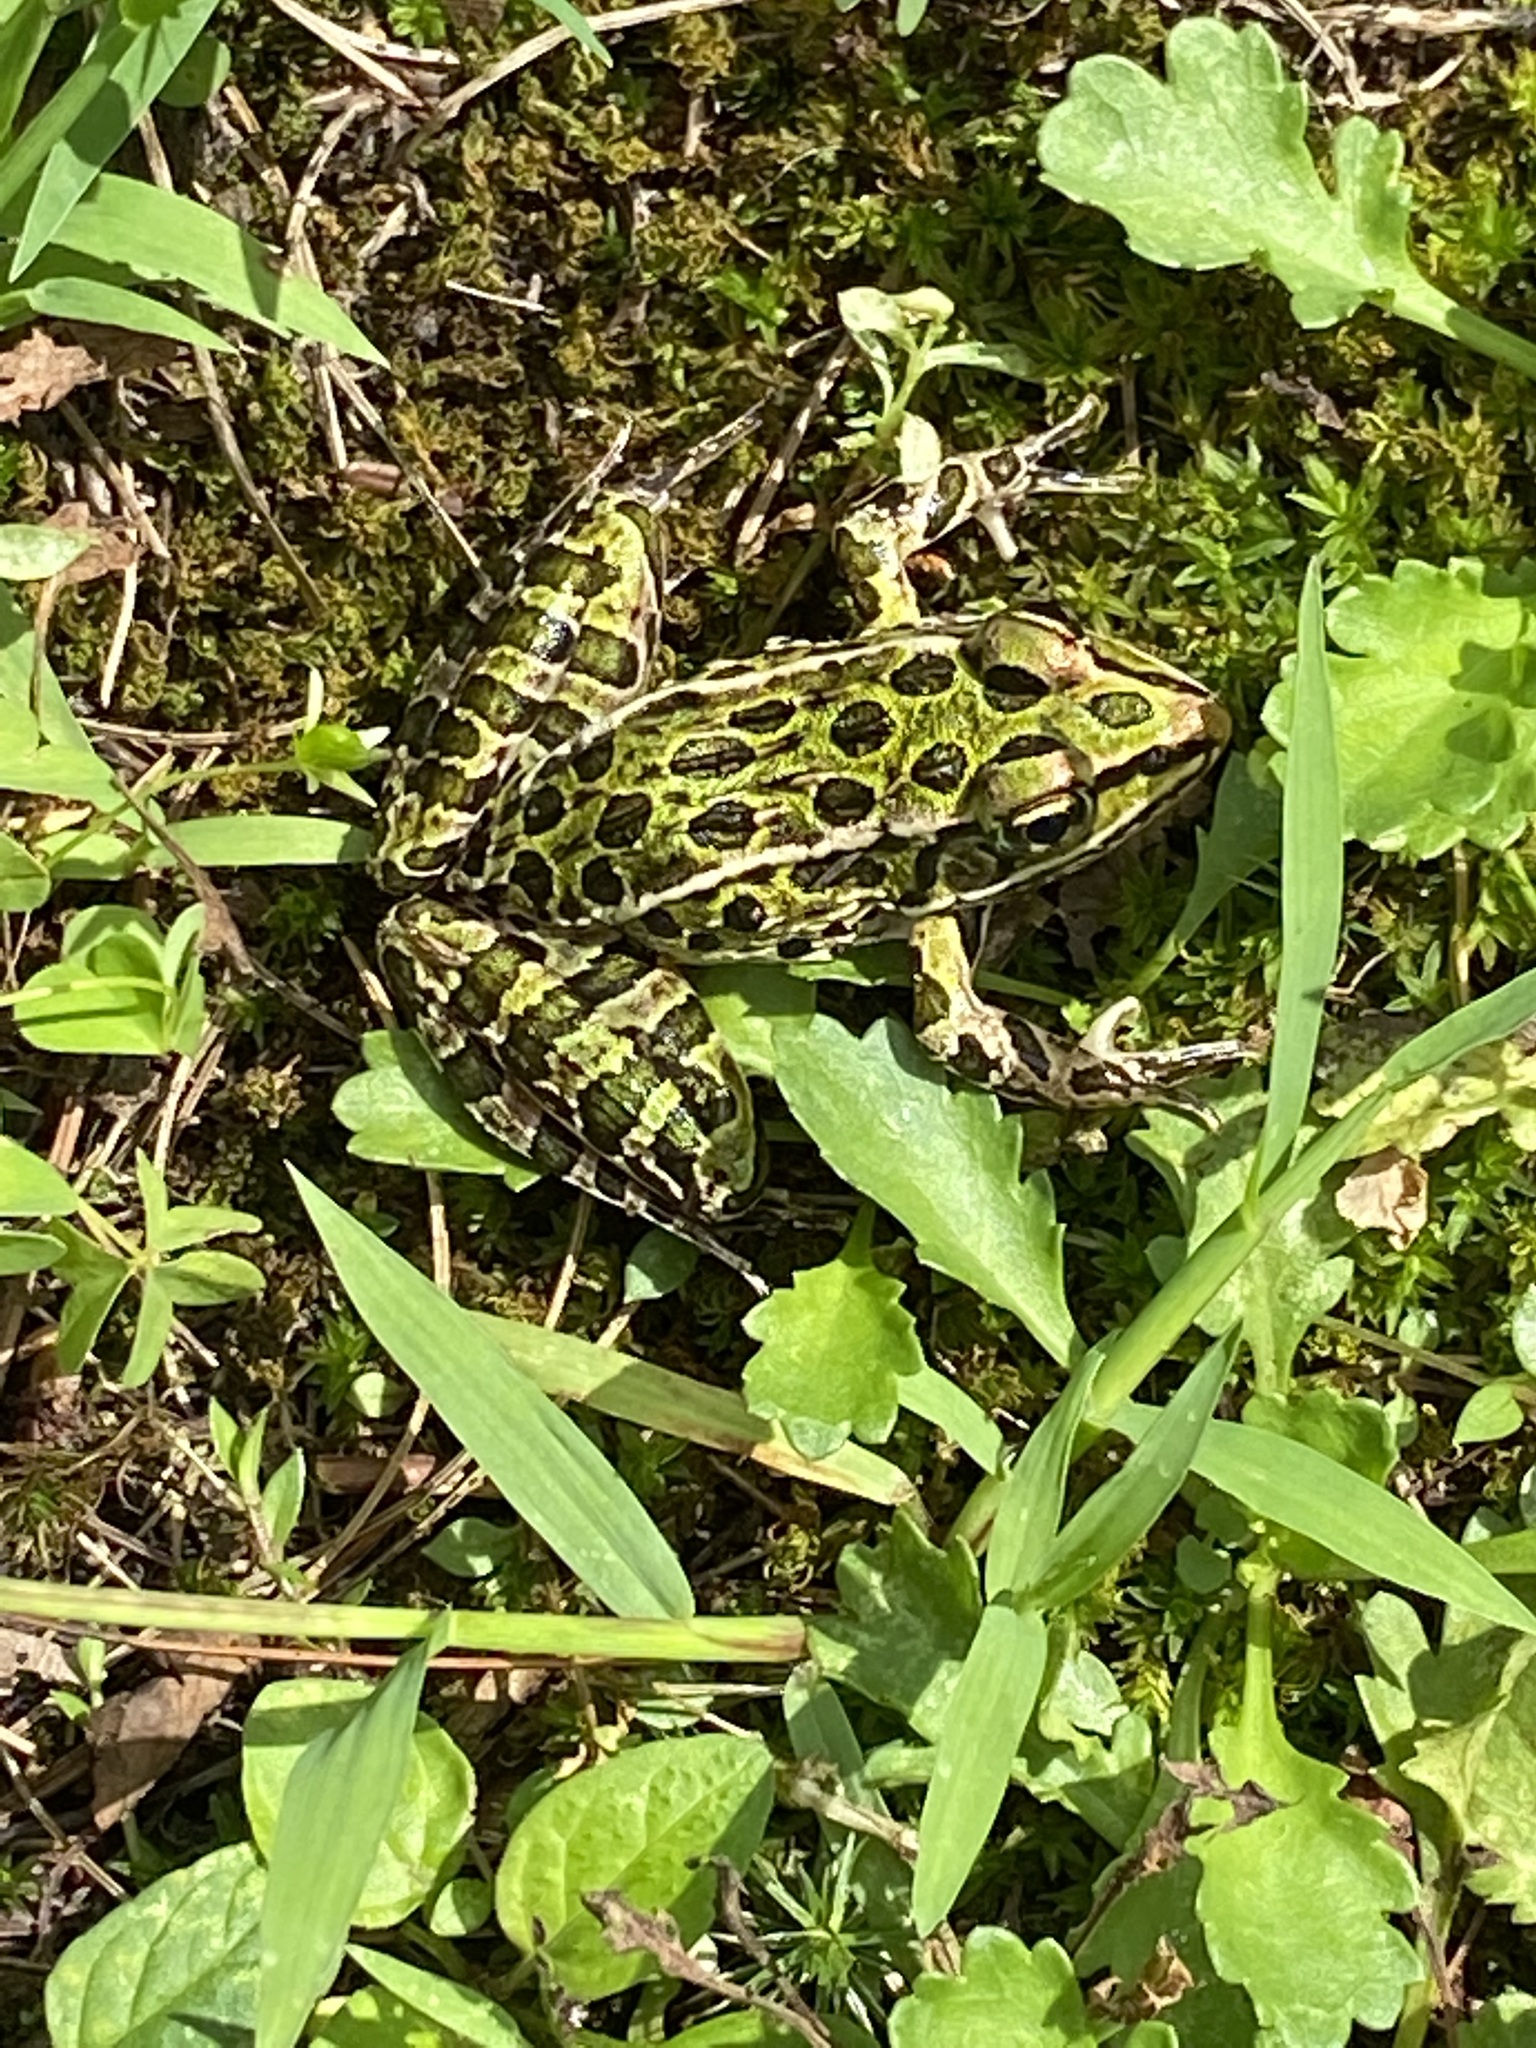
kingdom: Animalia
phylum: Chordata
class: Amphibia
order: Anura
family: Ranidae
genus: Lithobates
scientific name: Lithobates pipiens
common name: Northern leopard frog
